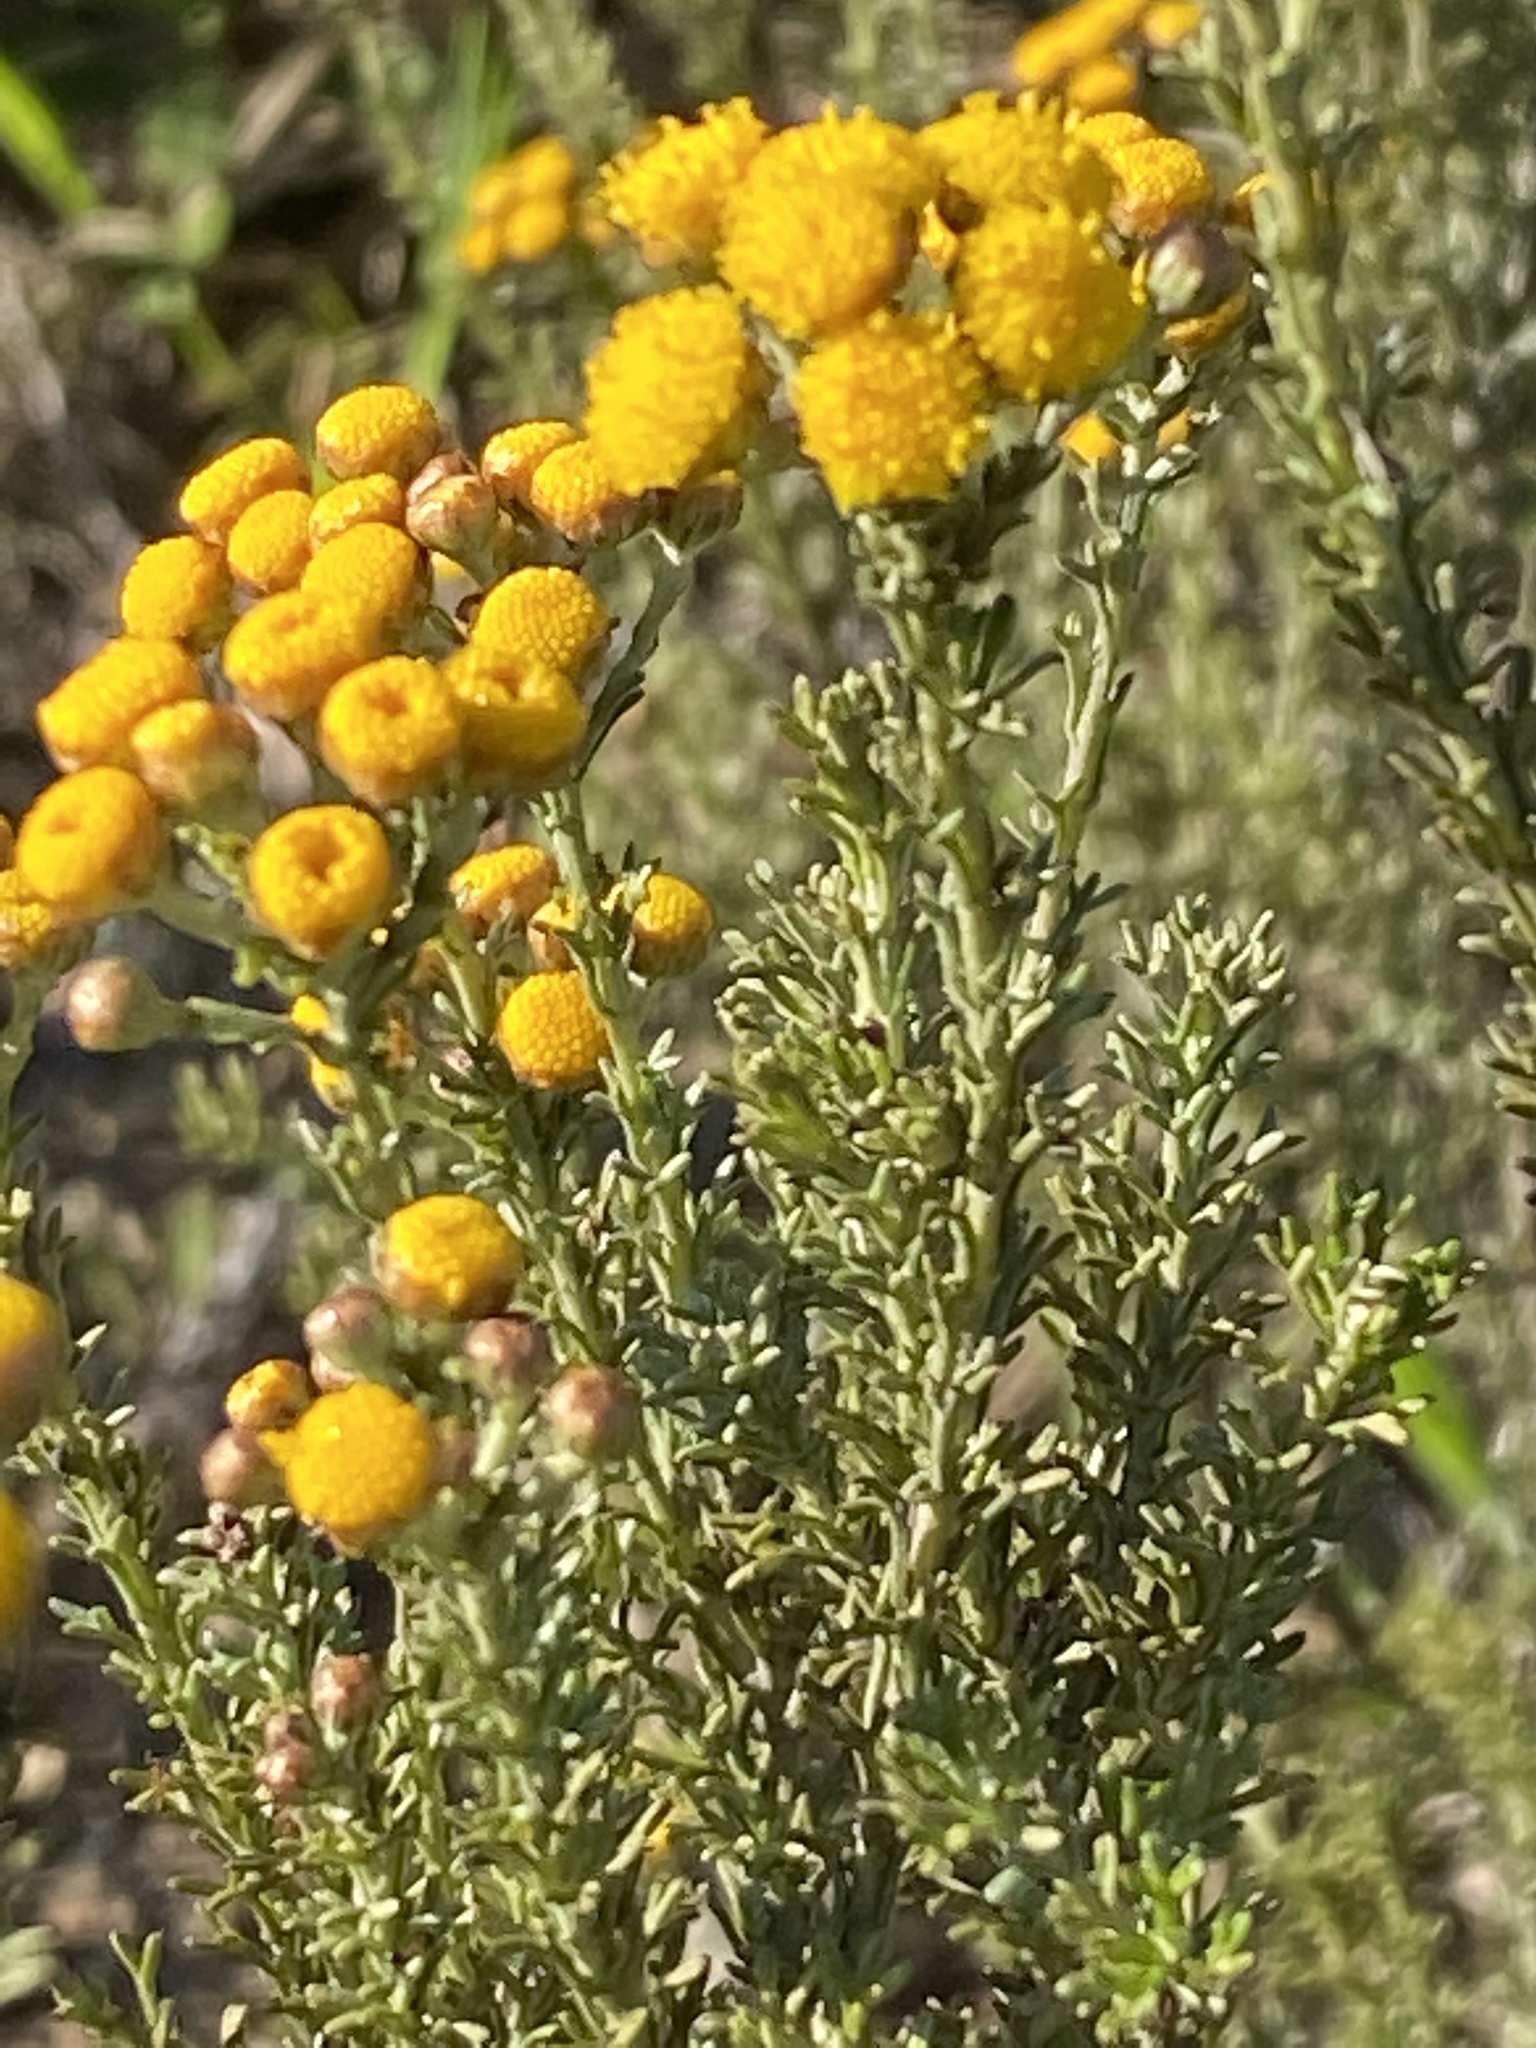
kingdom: Plantae
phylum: Tracheophyta
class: Magnoliopsida
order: Asterales
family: Asteraceae
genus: Chrysocoma
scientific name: Chrysocoma ciliata
